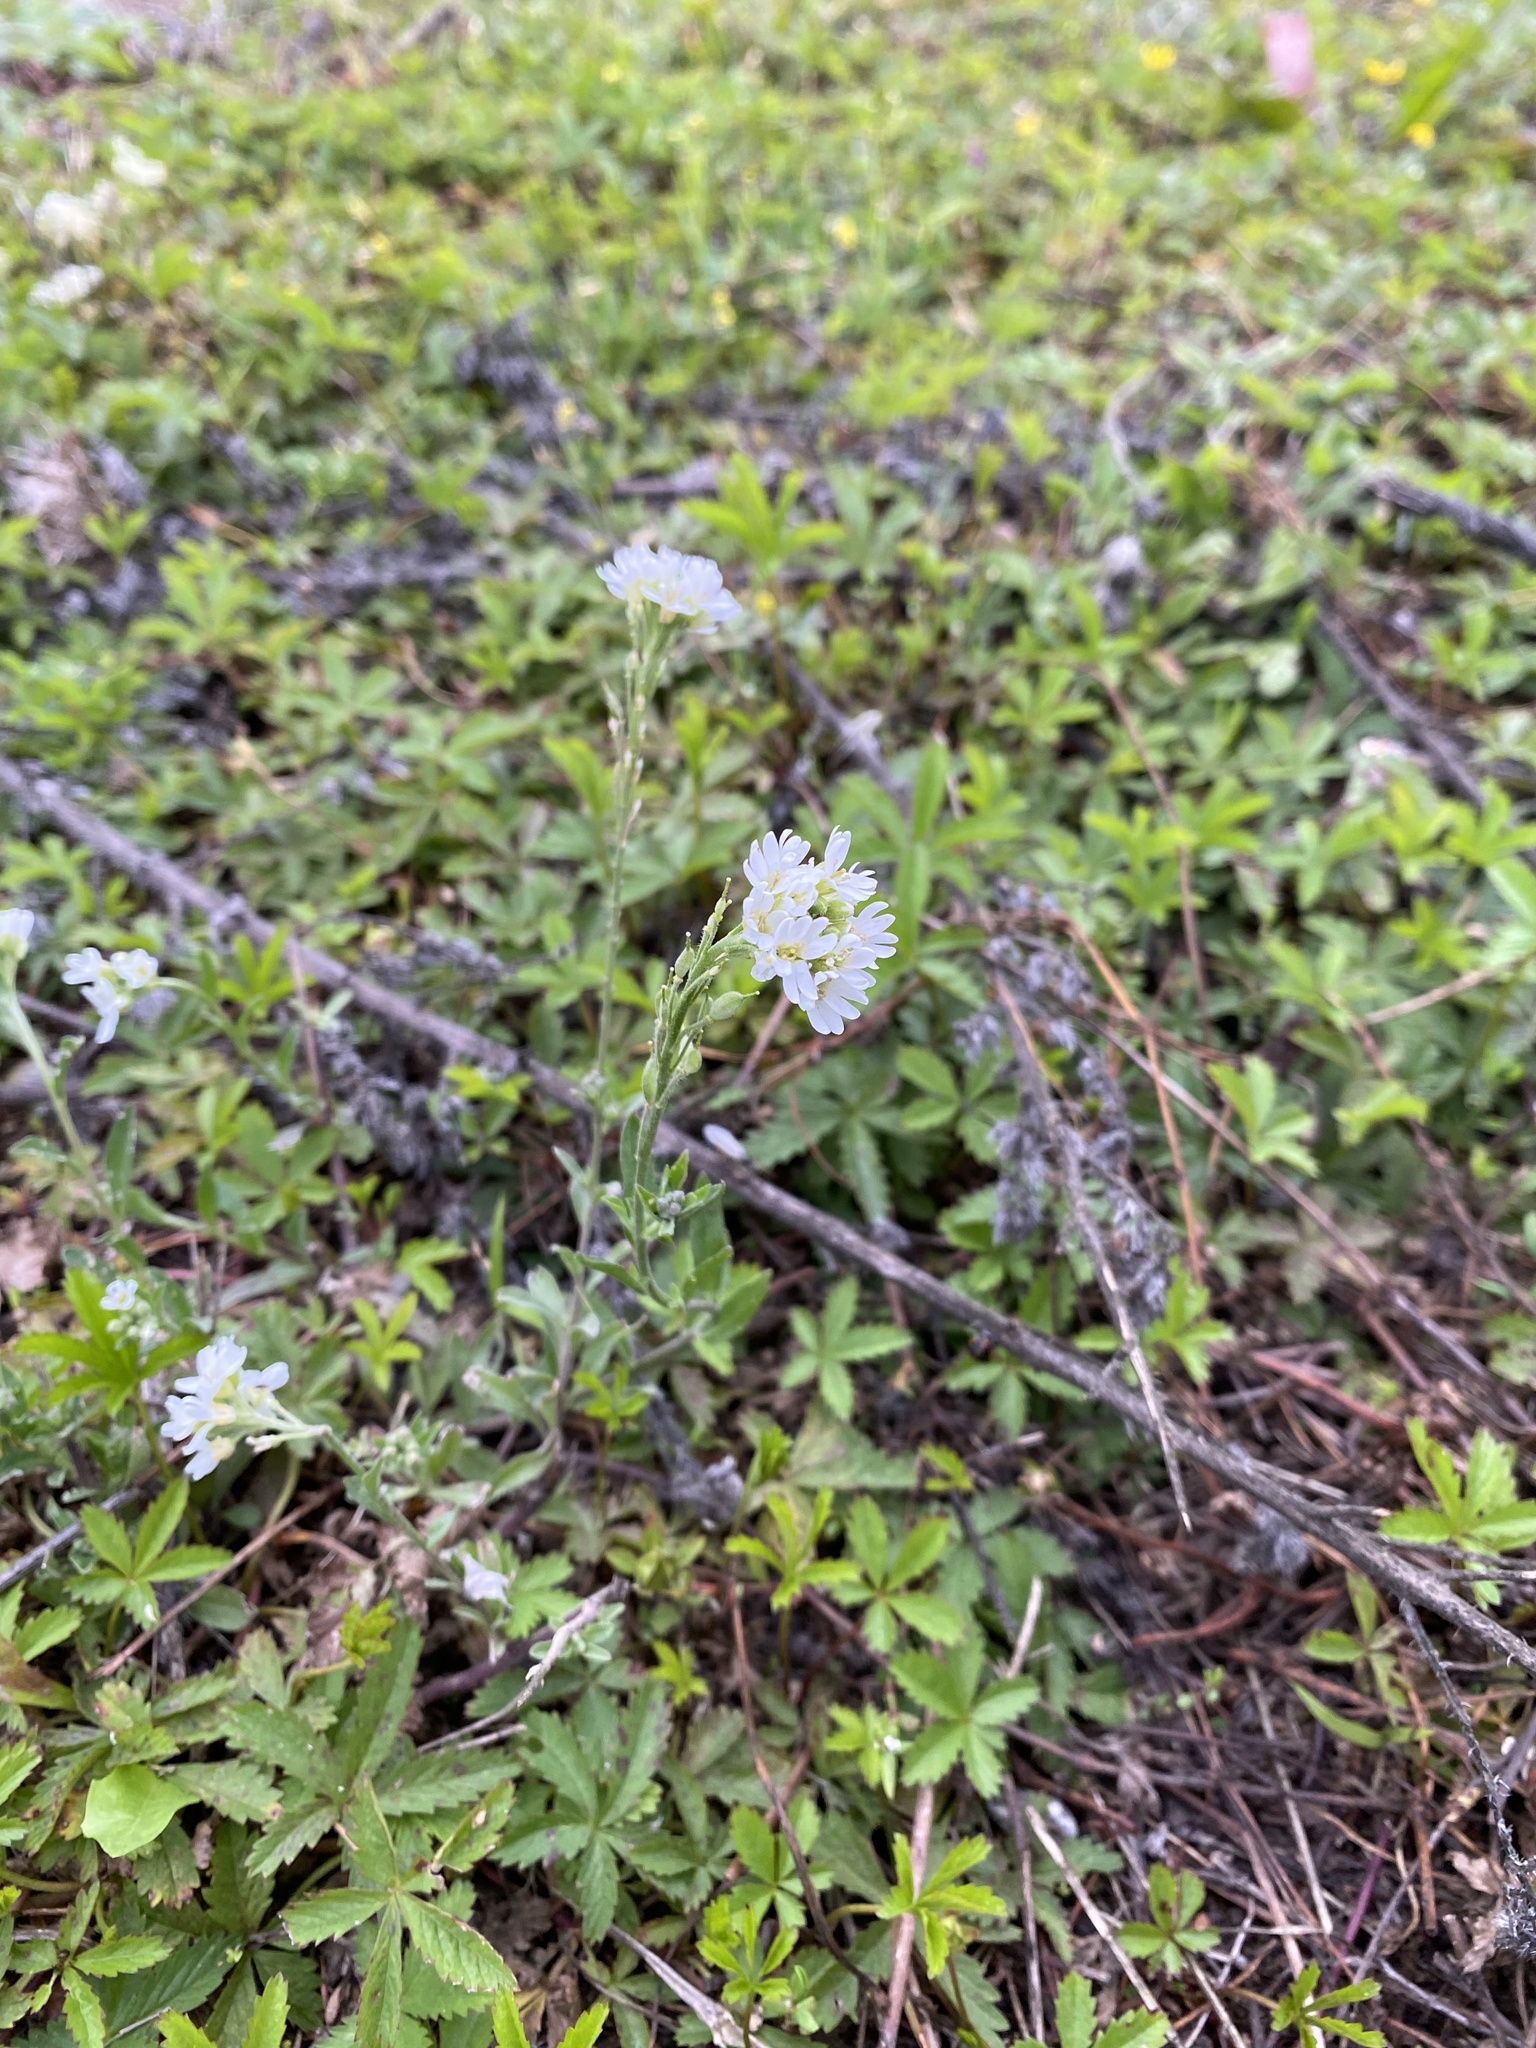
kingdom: Plantae
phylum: Tracheophyta
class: Magnoliopsida
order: Brassicales
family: Brassicaceae
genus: Berteroa
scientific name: Berteroa incana
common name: Hoary alison
